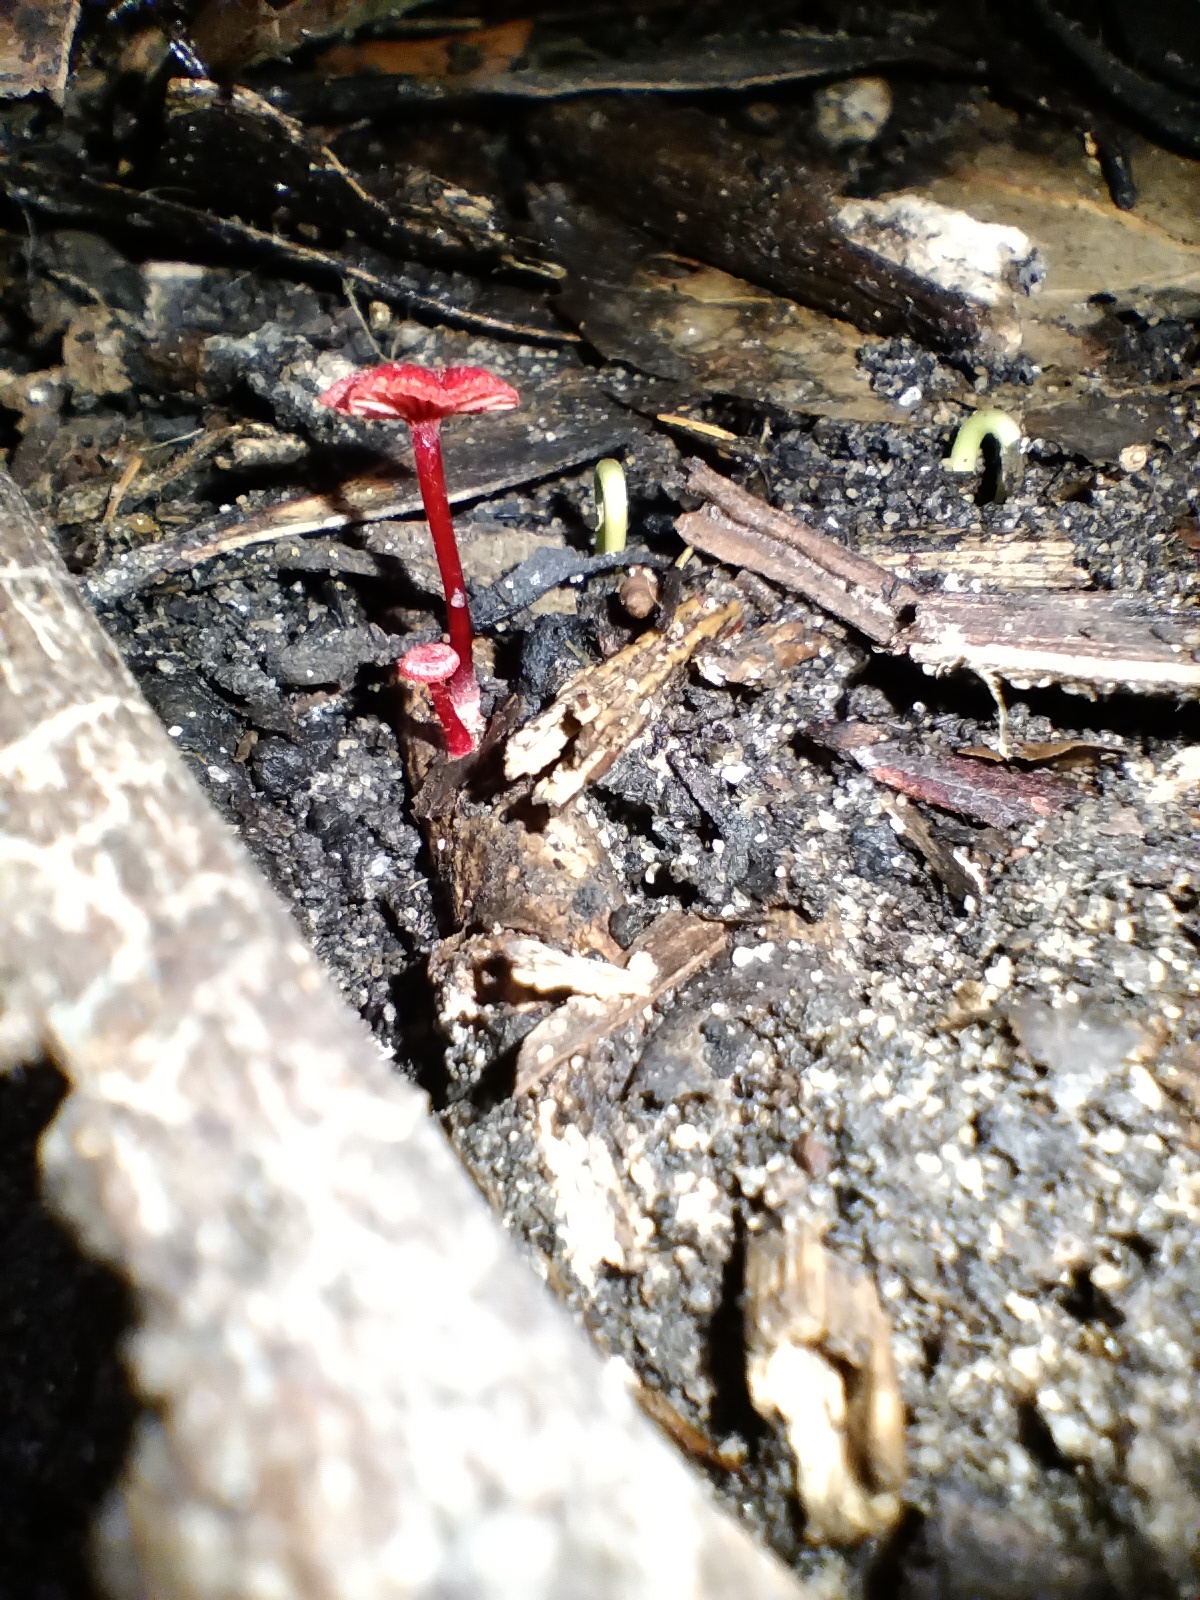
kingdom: Fungi
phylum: Basidiomycota
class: Agaricomycetes
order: Agaricales
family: Mycenaceae
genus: Cruentomycena
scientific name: Cruentomycena viscidocruenta
